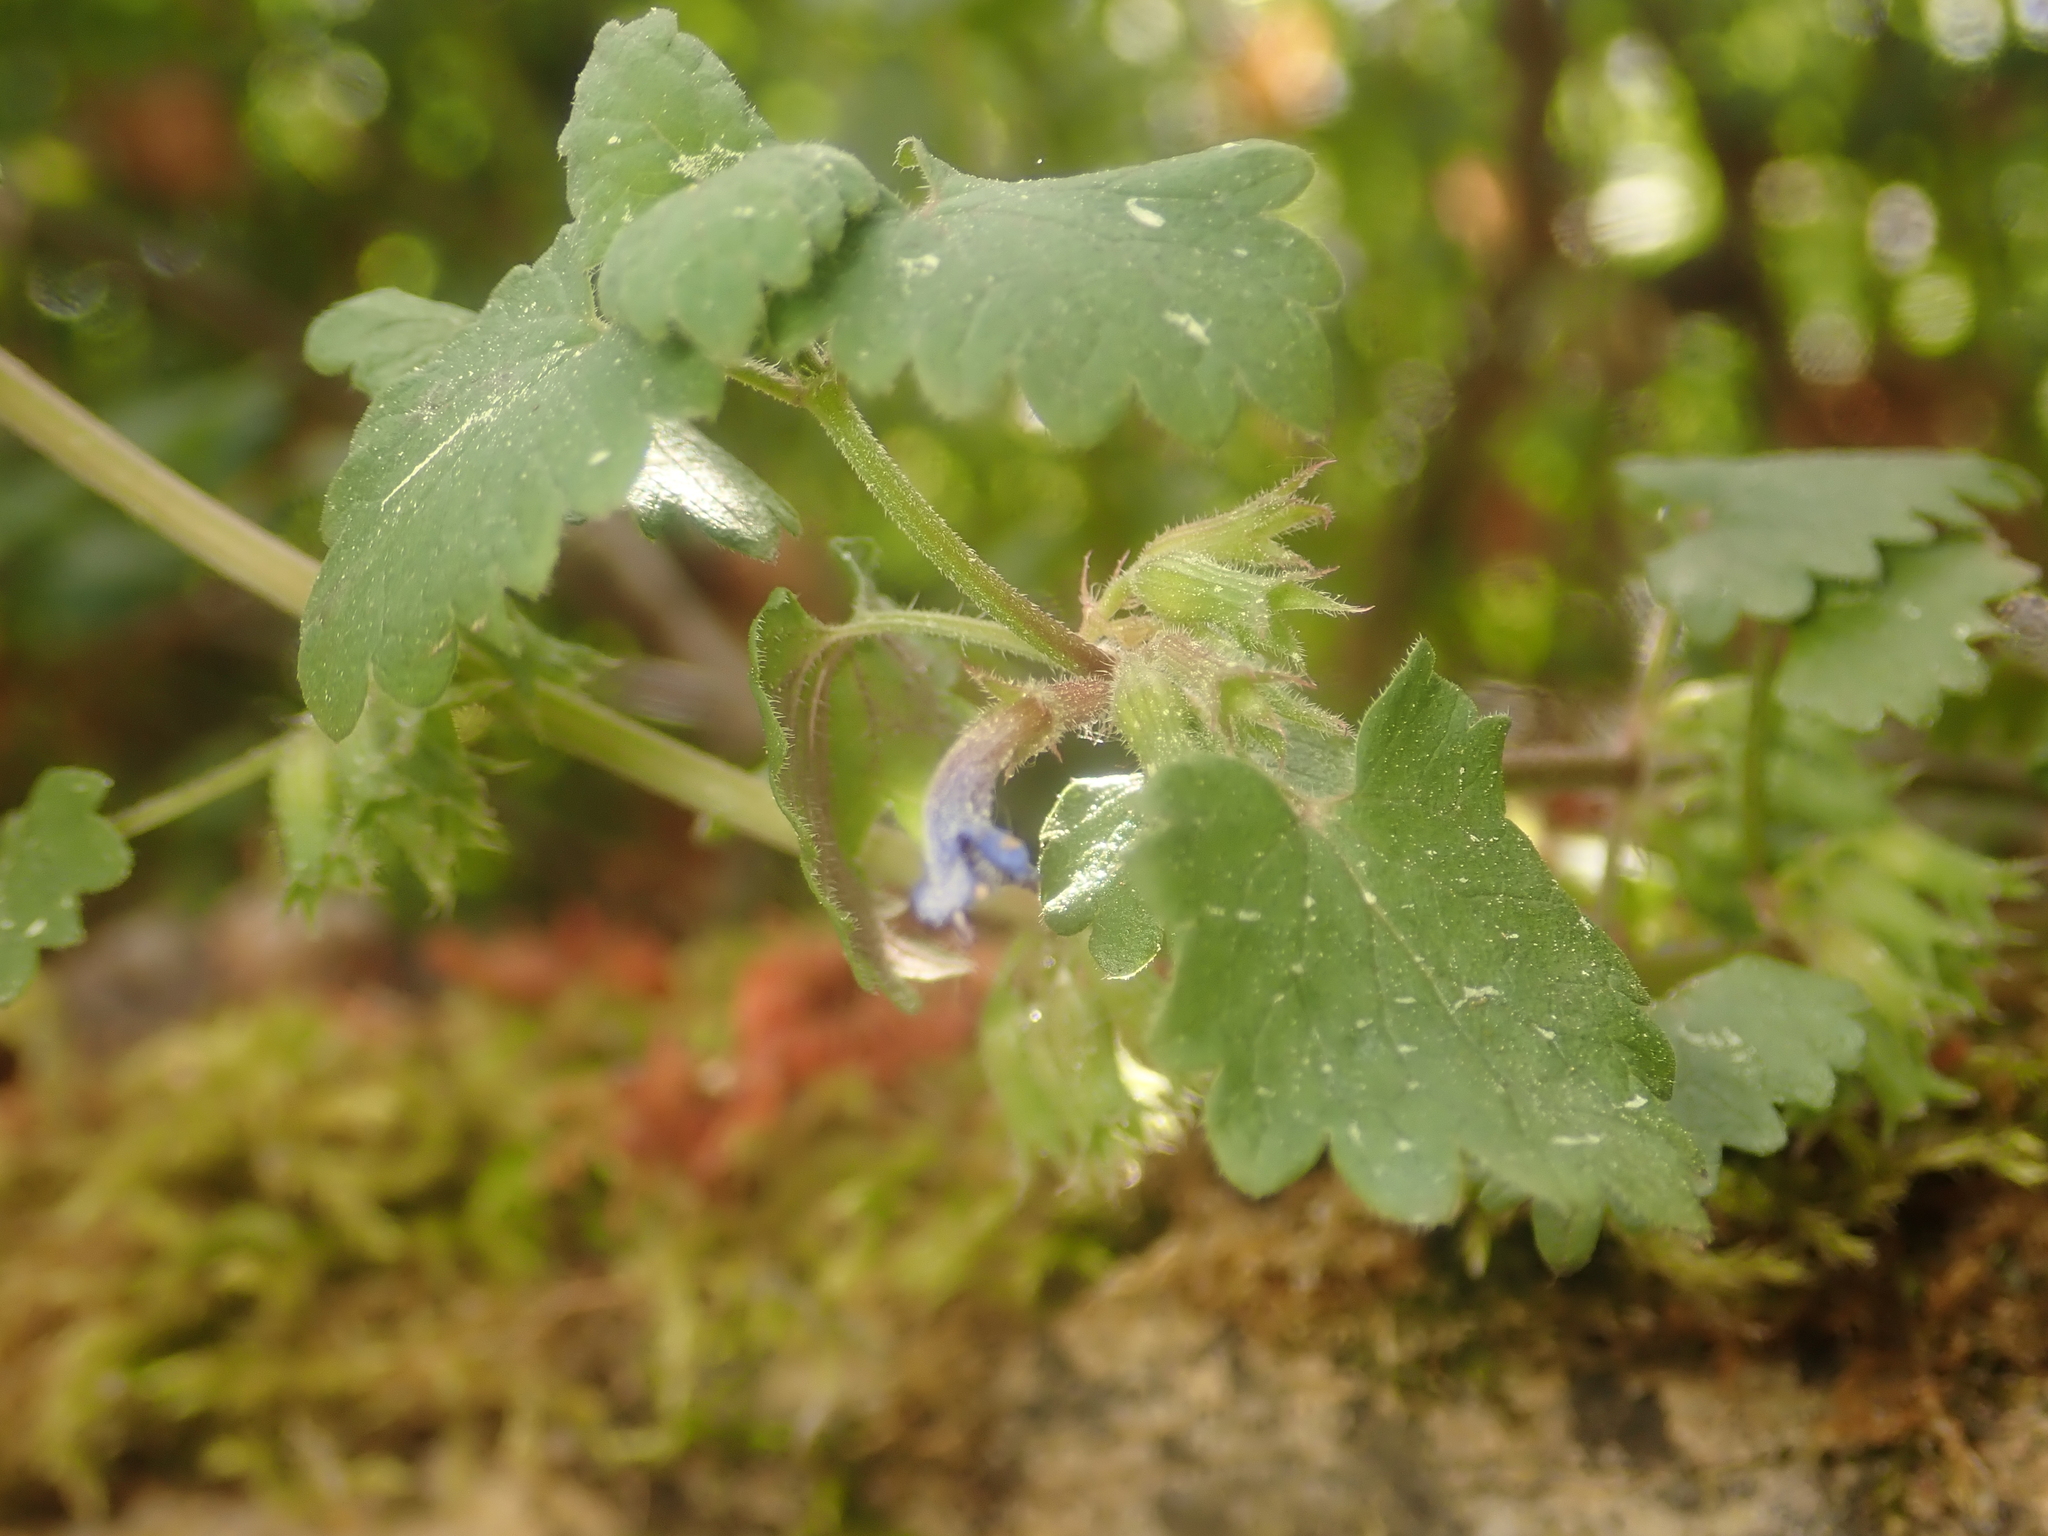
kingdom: Plantae
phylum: Tracheophyta
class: Magnoliopsida
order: Lamiales
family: Lamiaceae
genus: Glechoma
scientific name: Glechoma hederacea
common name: Ground ivy
